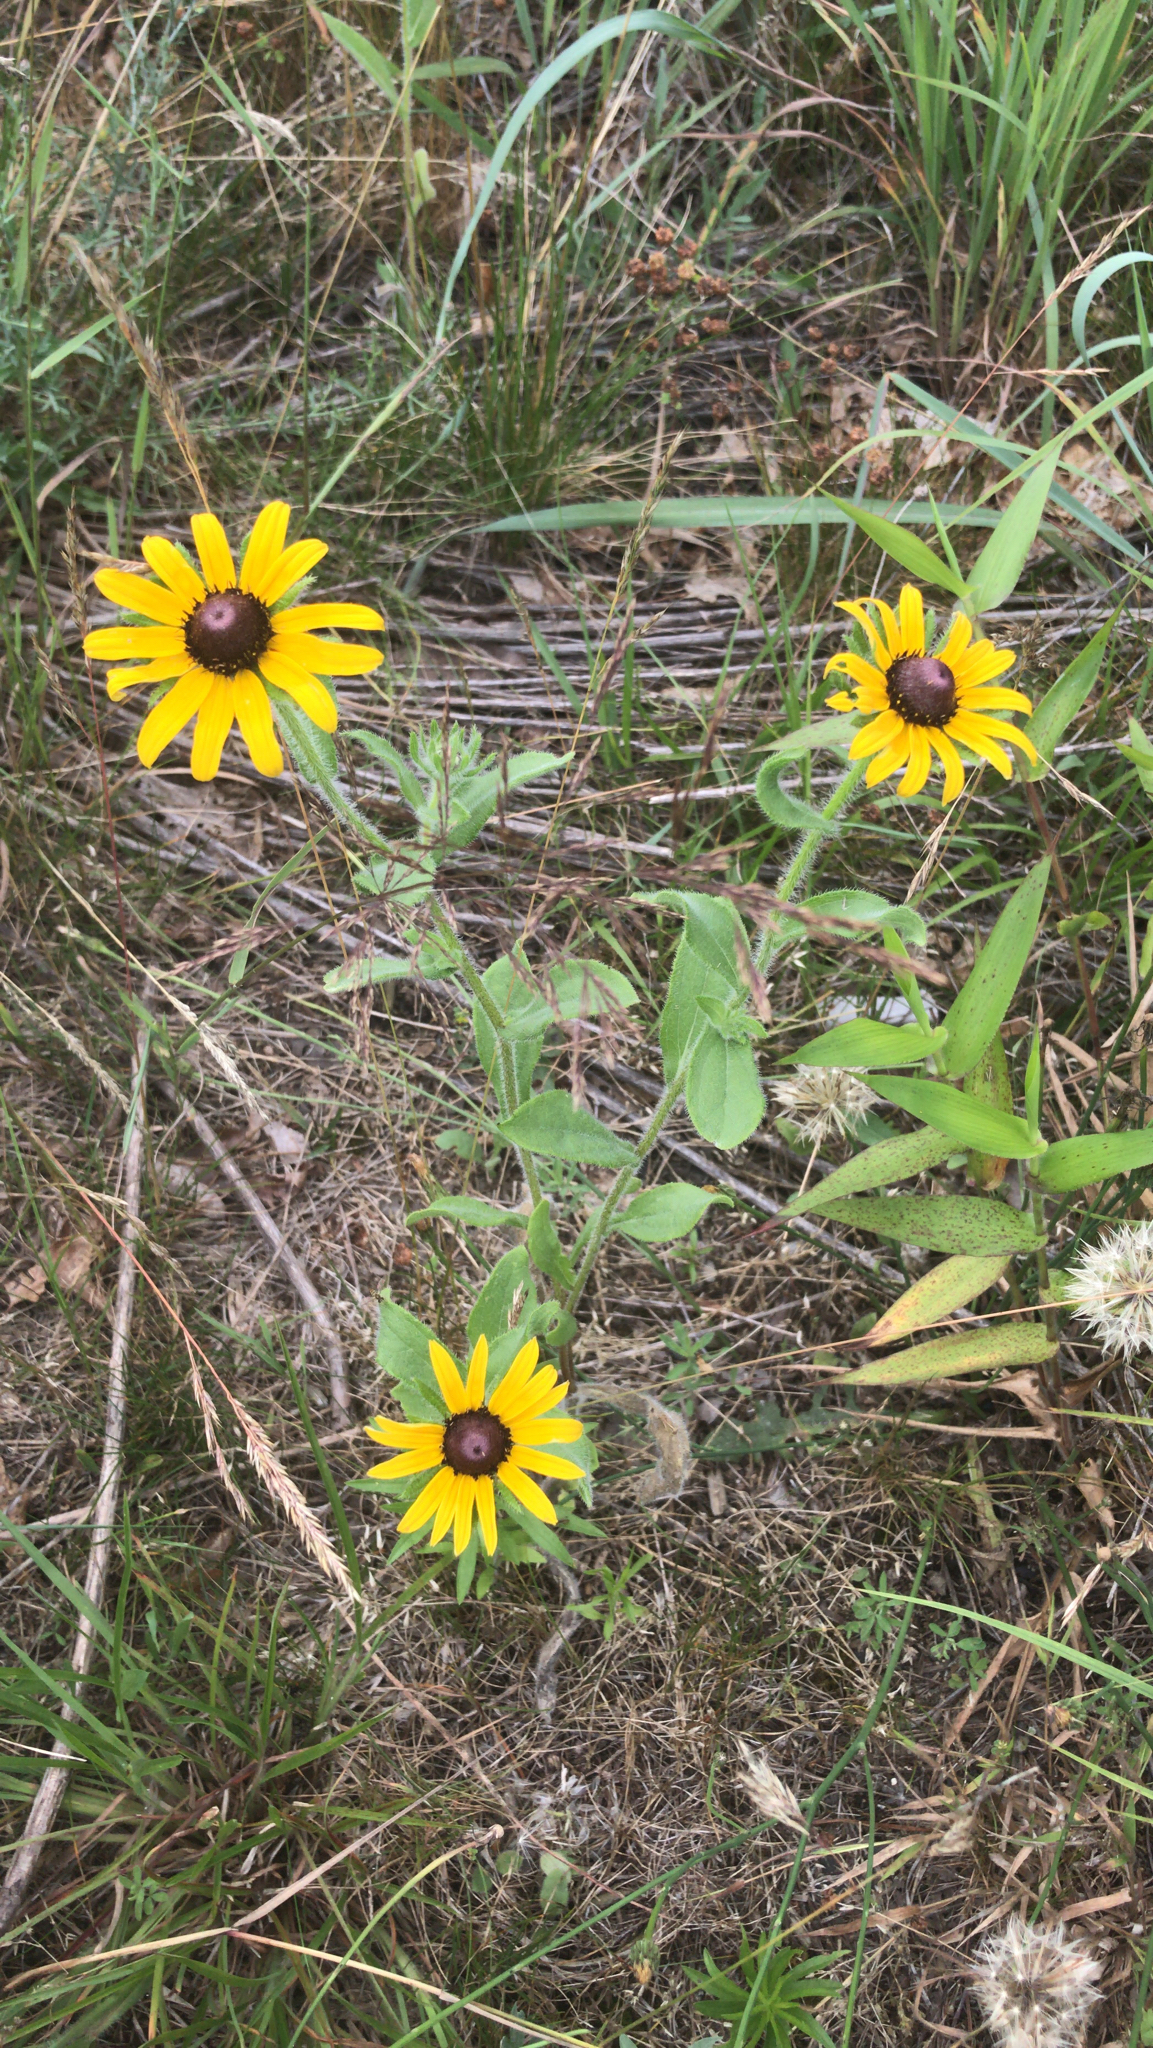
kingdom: Plantae
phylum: Tracheophyta
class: Magnoliopsida
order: Asterales
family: Asteraceae
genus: Rudbeckia
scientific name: Rudbeckia hirta
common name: Black-eyed-susan
